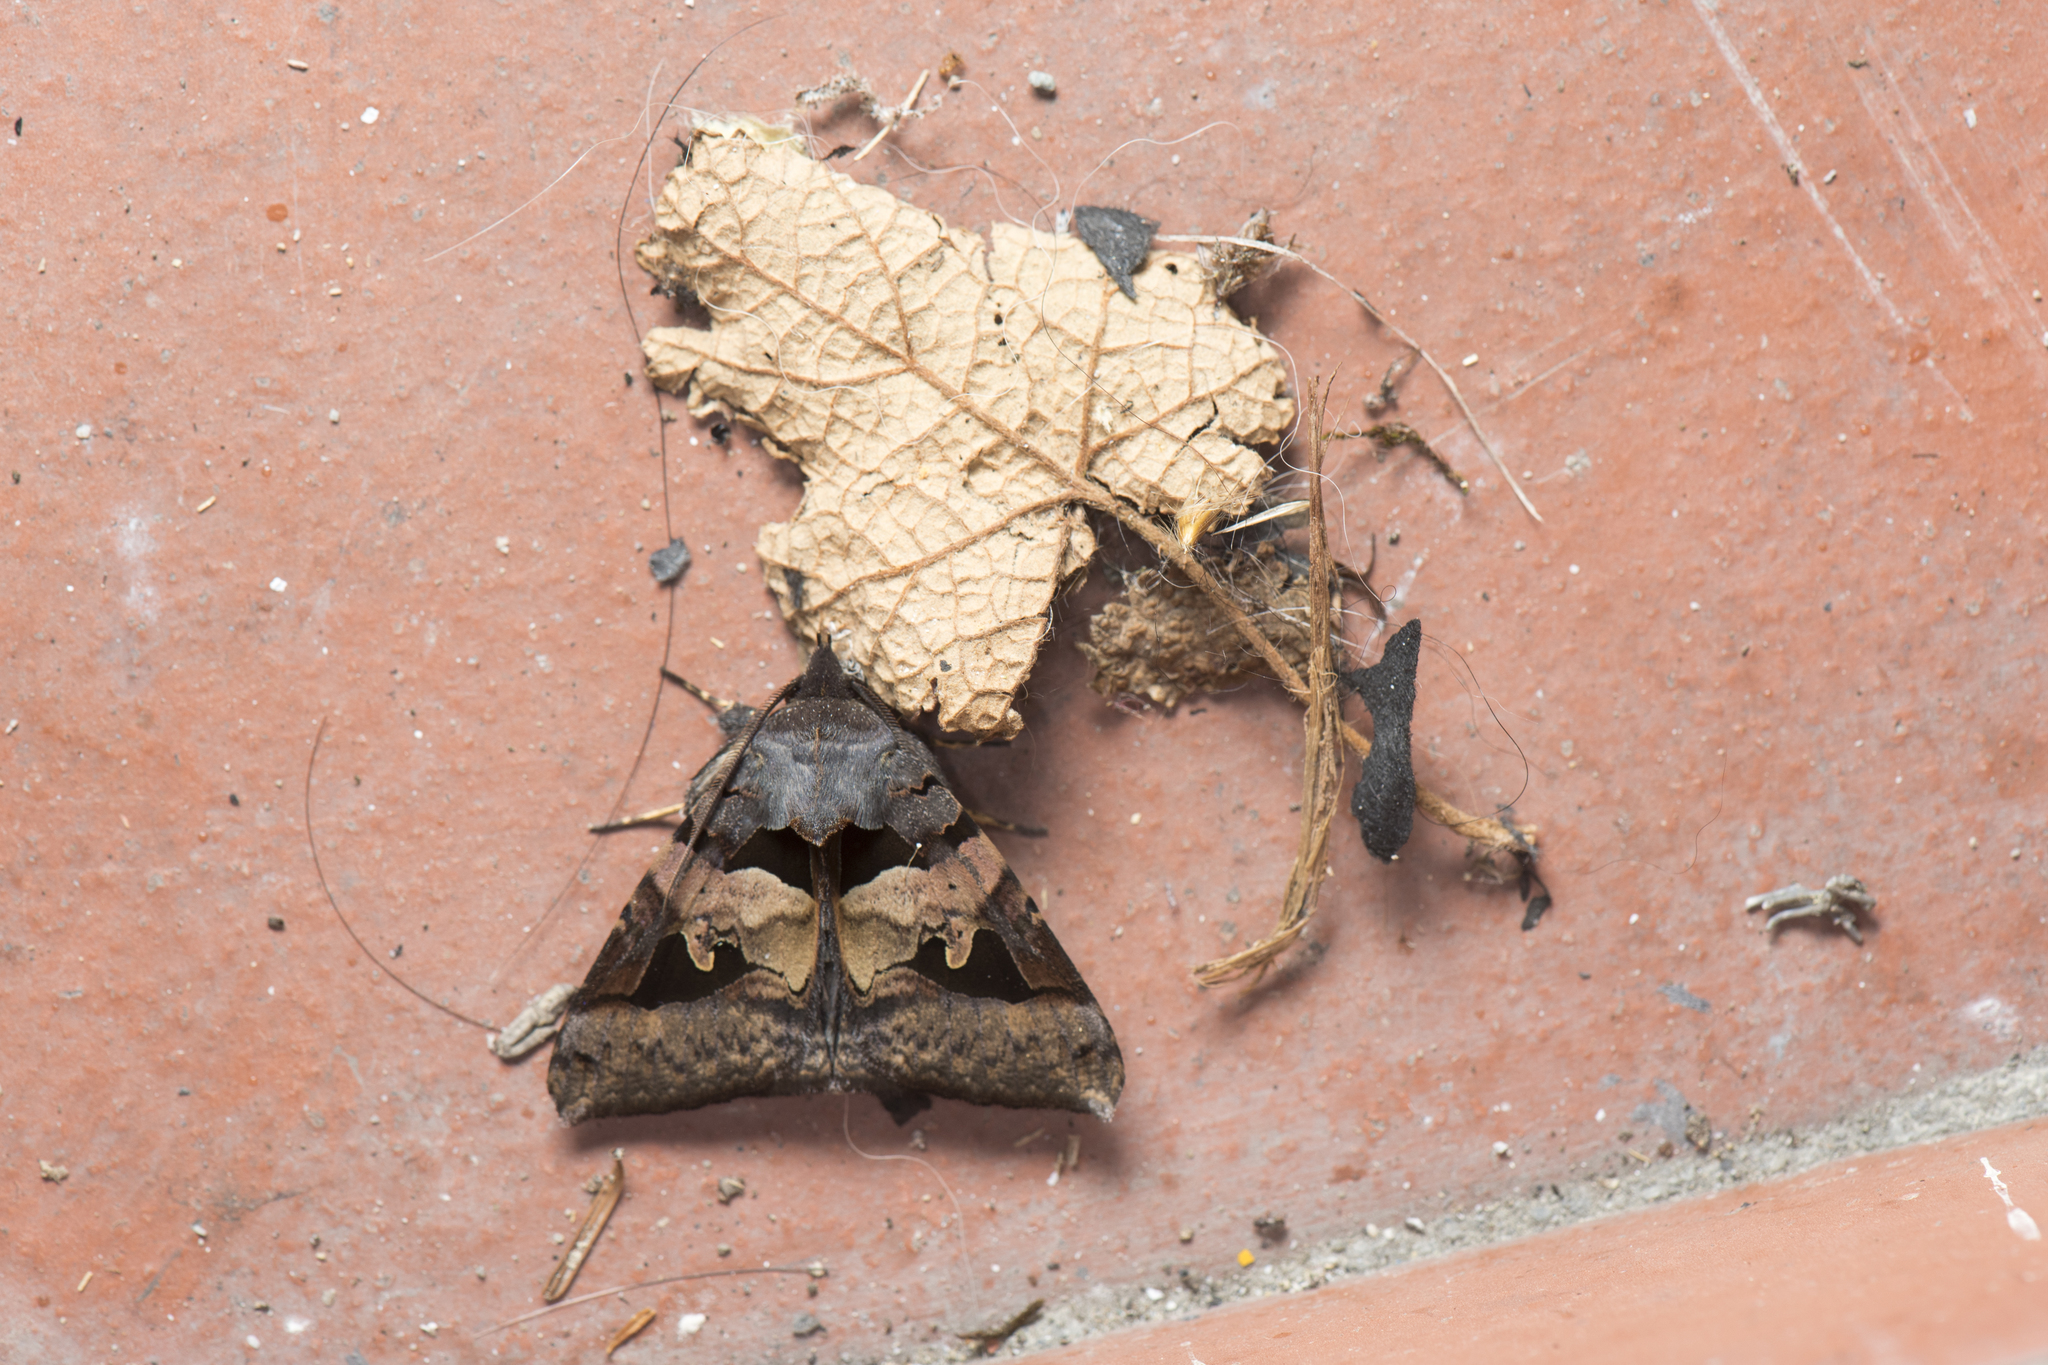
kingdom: Animalia
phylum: Arthropoda
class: Insecta
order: Lepidoptera
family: Erebidae
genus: Avatha
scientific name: Avatha chinensis
